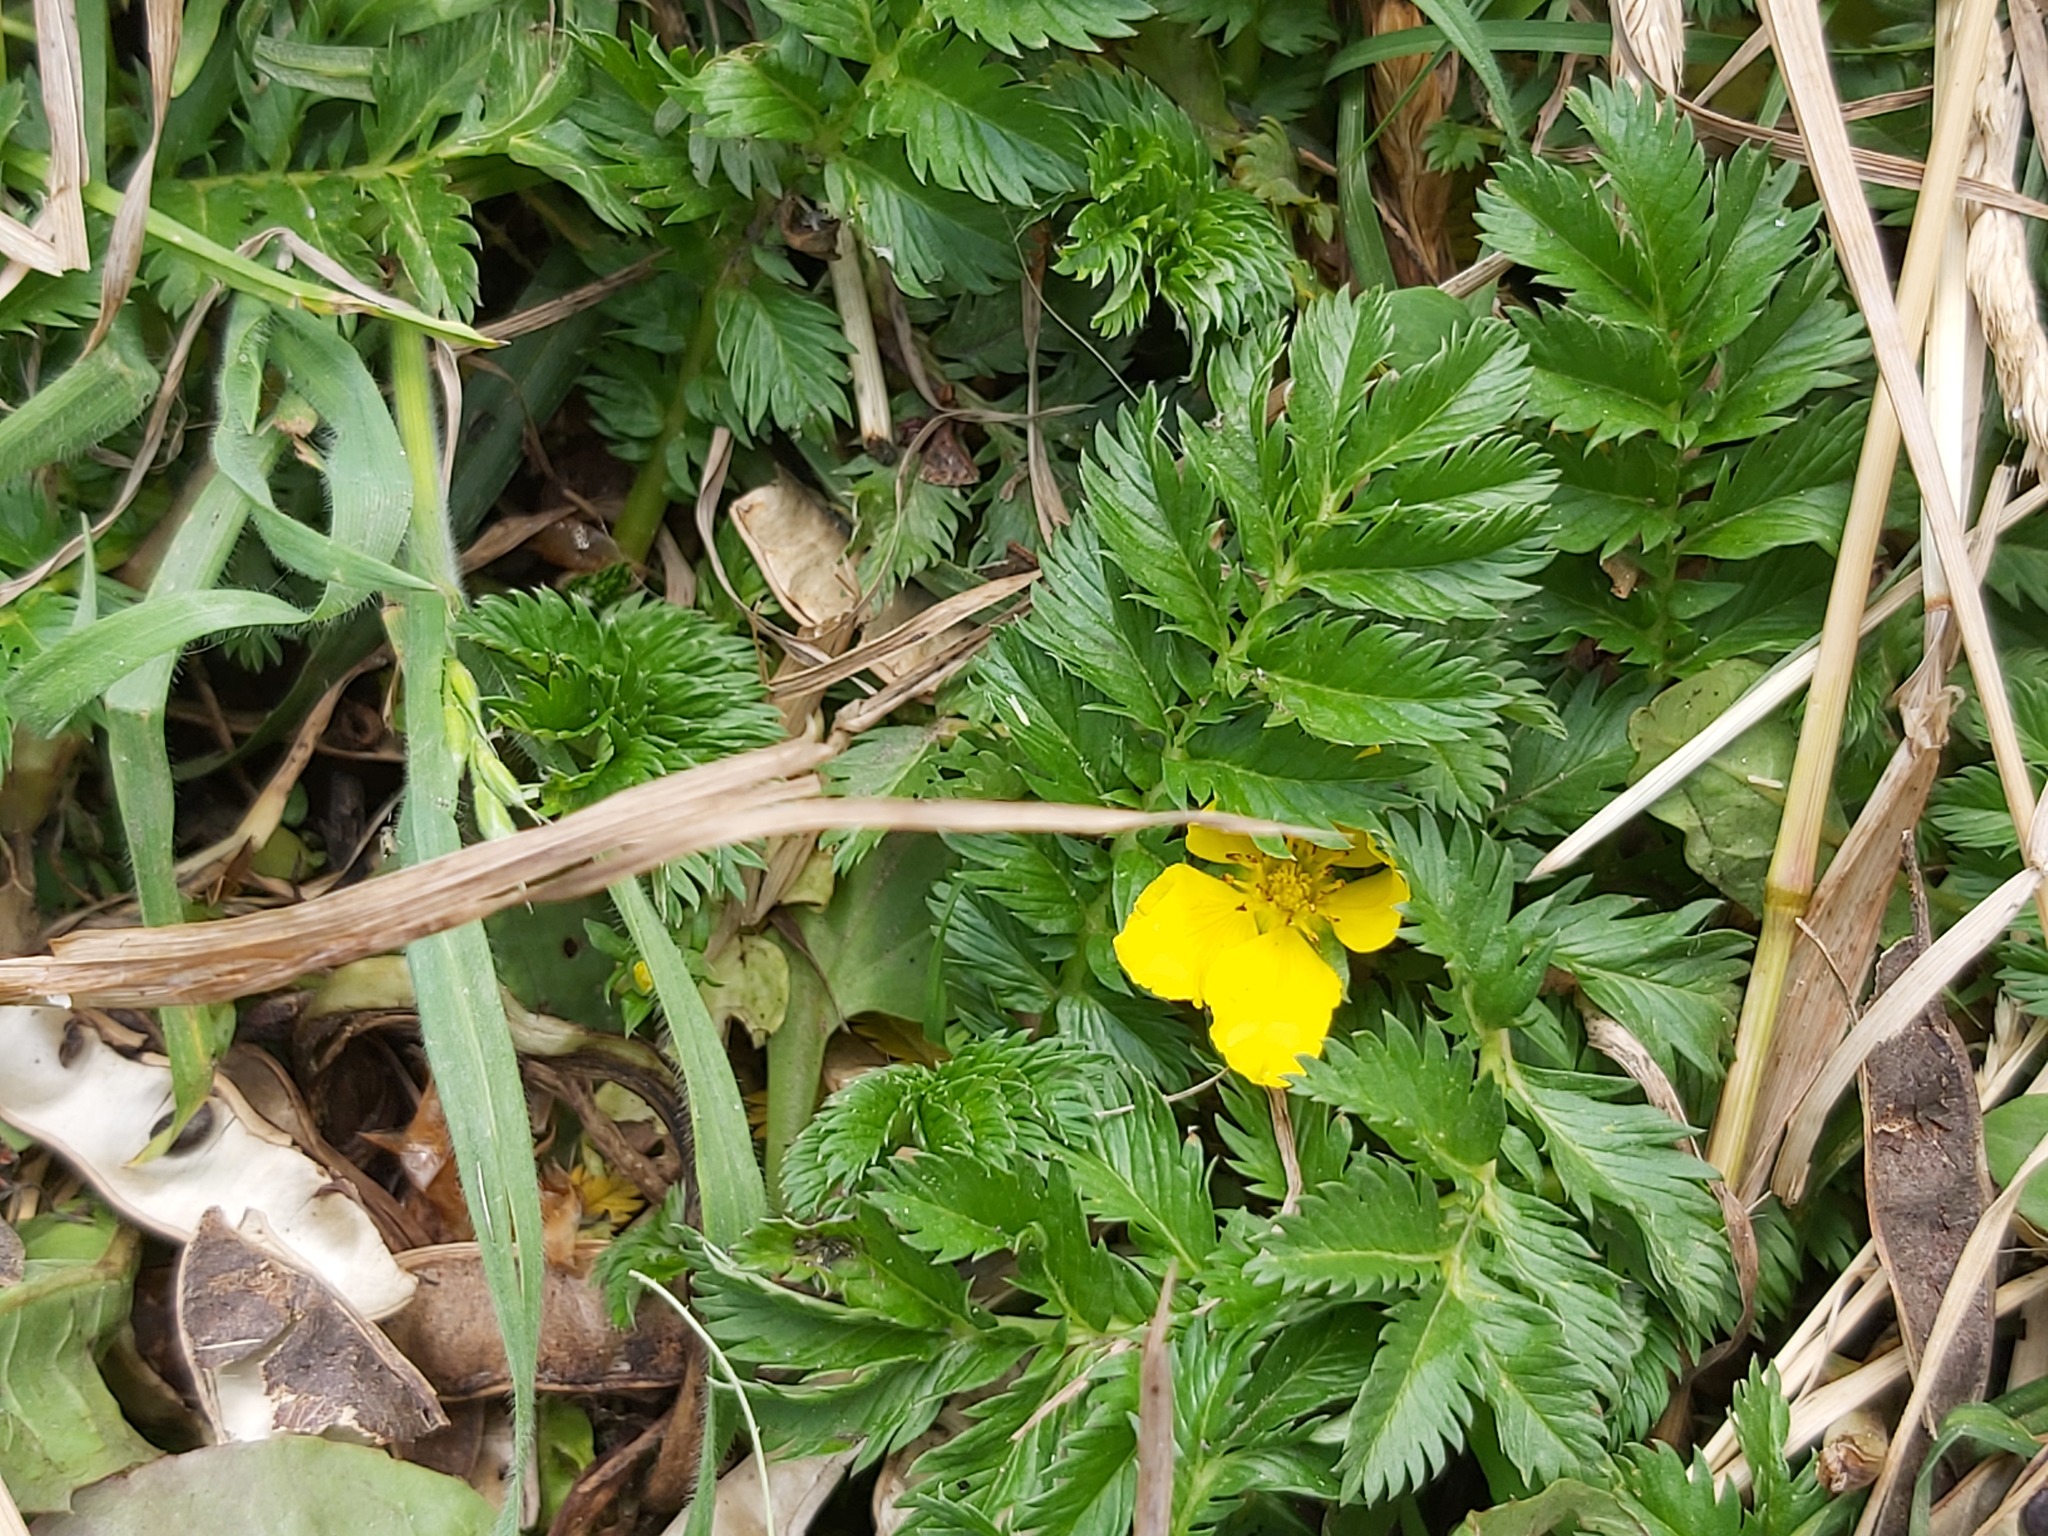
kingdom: Plantae
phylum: Tracheophyta
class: Magnoliopsida
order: Rosales
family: Rosaceae
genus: Argentina
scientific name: Argentina anserina
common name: Common silverweed
